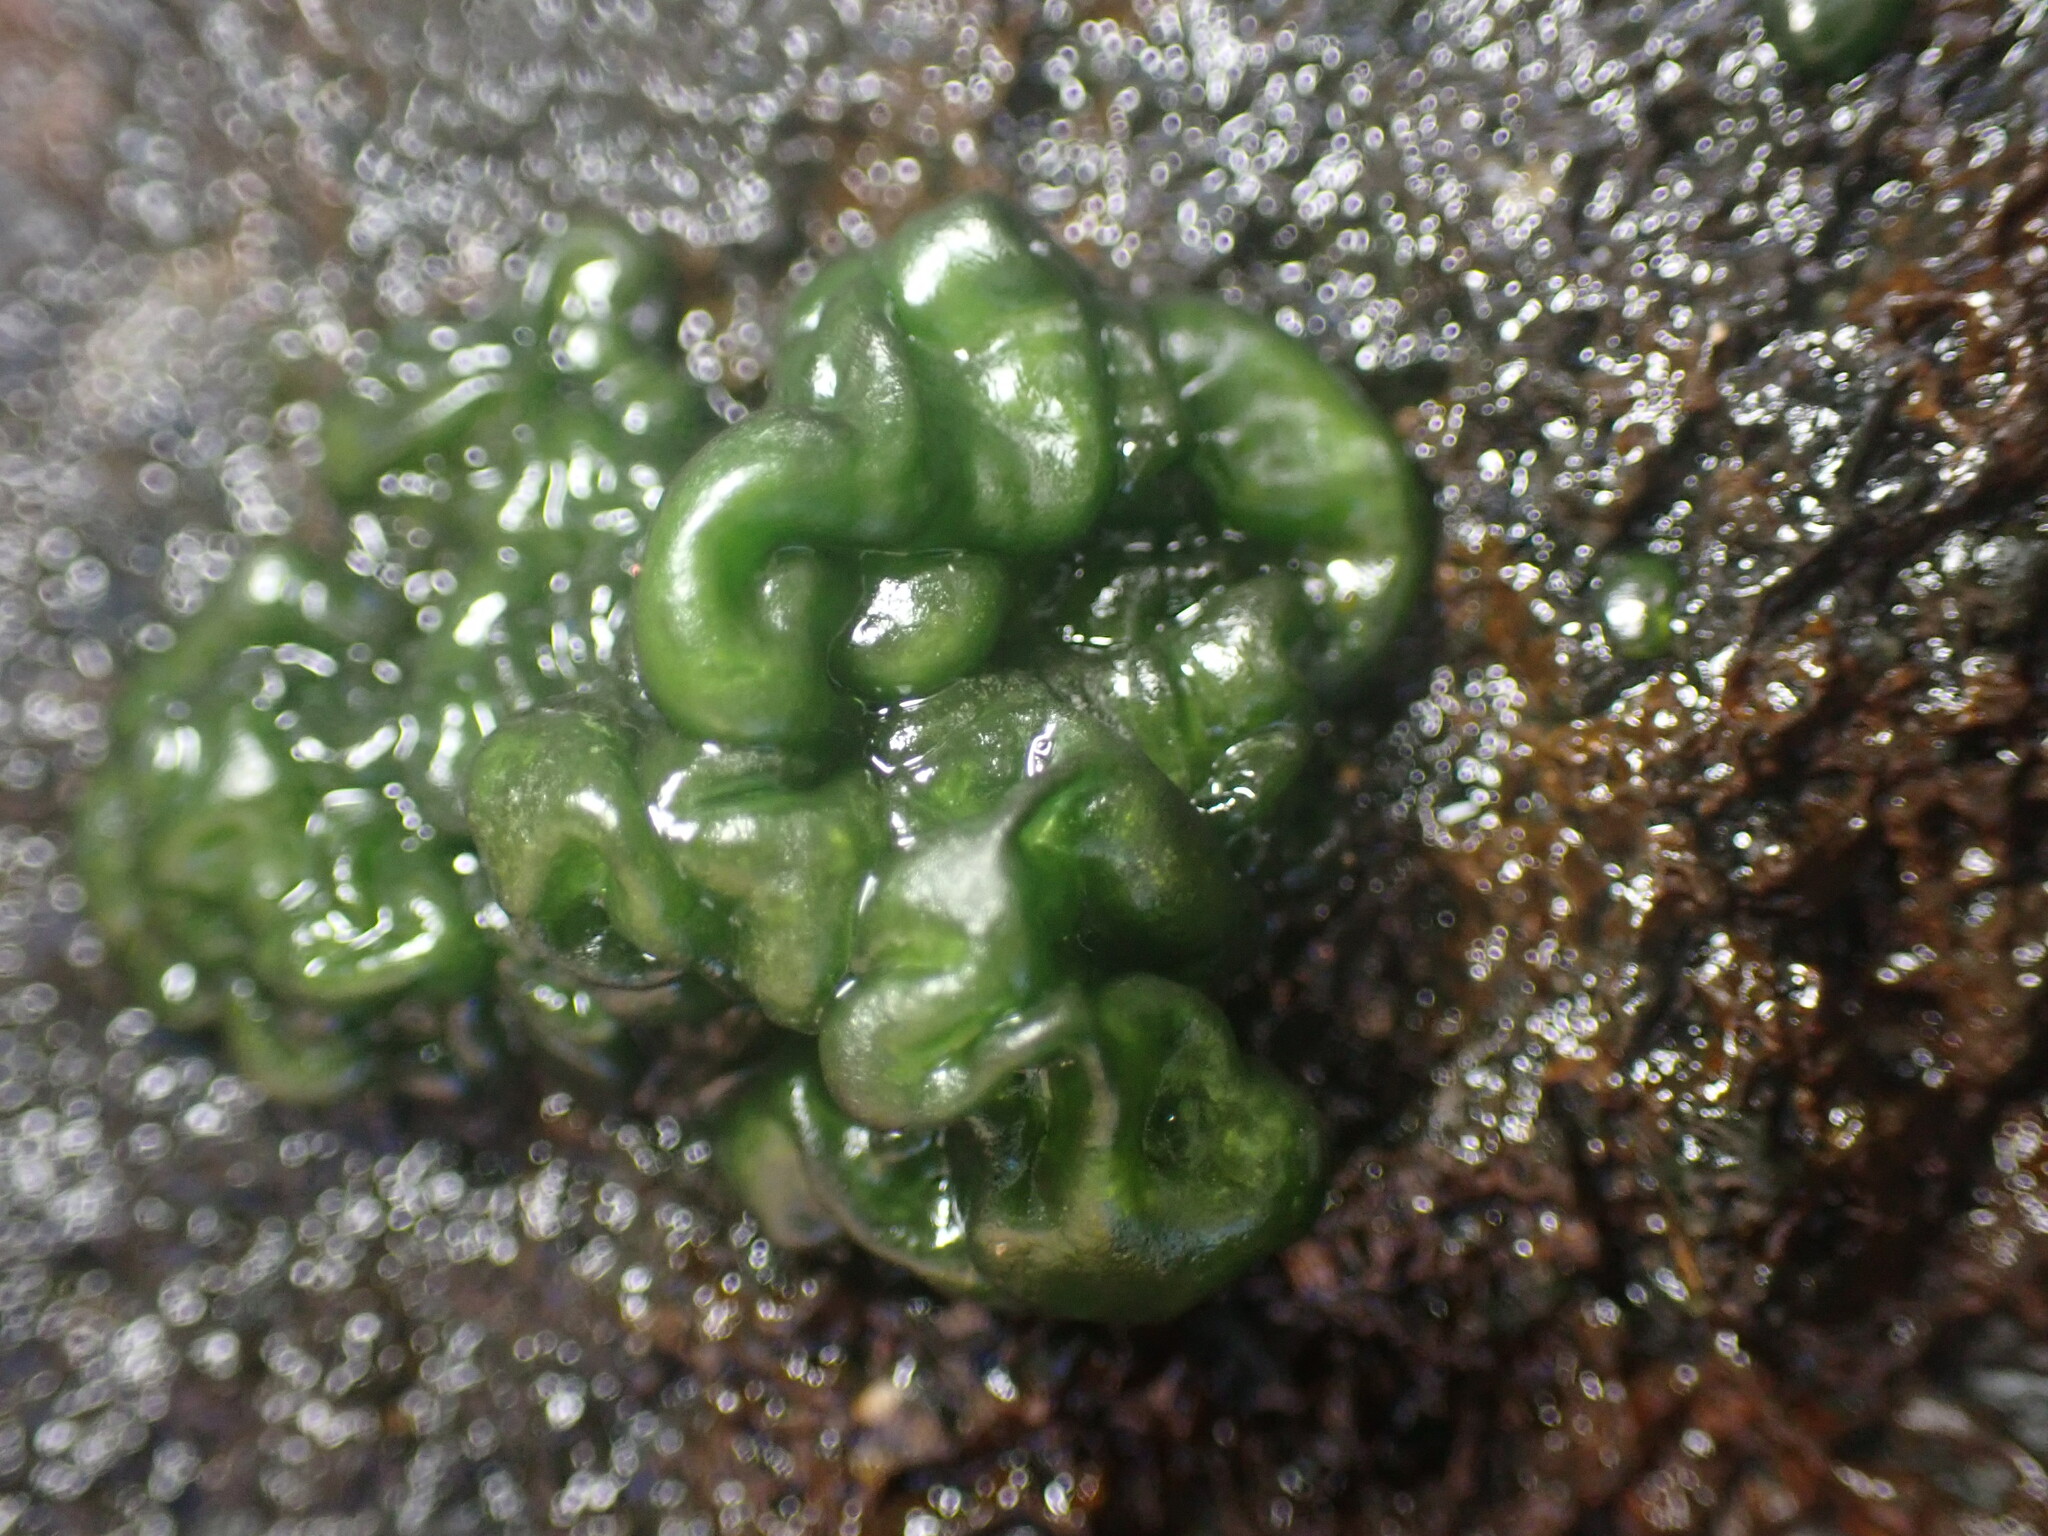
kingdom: Bacteria
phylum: Cyanobacteria
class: Cyanobacteriia
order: Cyanobacteriales
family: Nostocaceae
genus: Rivularia
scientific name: Rivularia bullata
